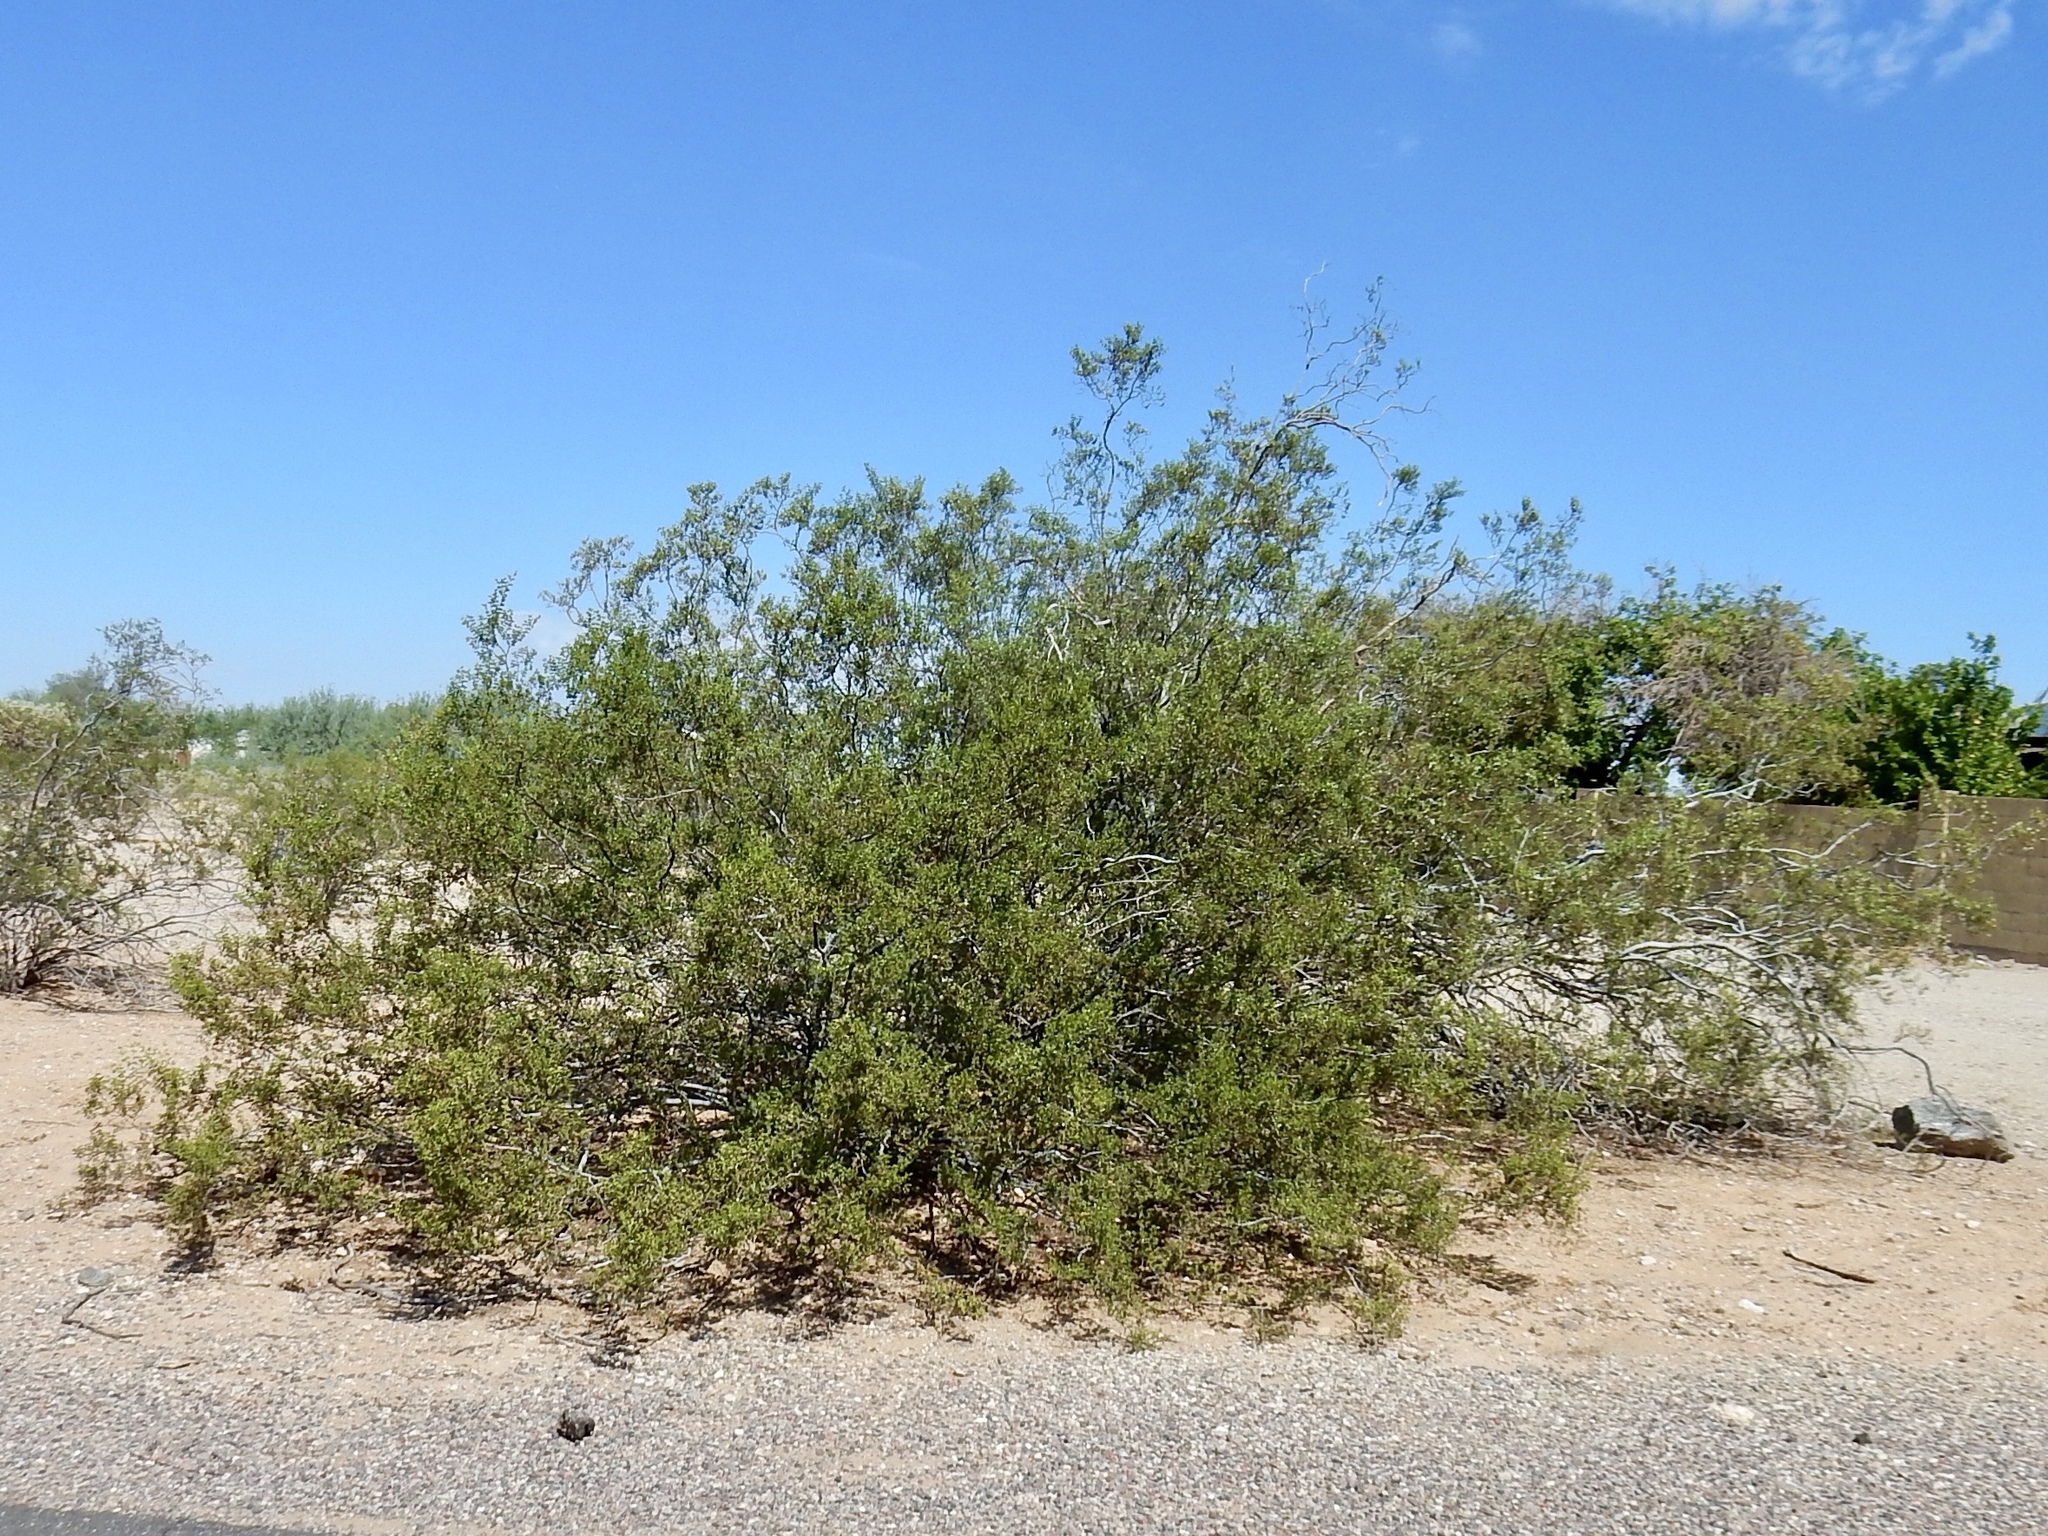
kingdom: Plantae
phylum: Tracheophyta
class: Magnoliopsida
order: Zygophyllales
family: Zygophyllaceae
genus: Larrea
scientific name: Larrea tridentata
